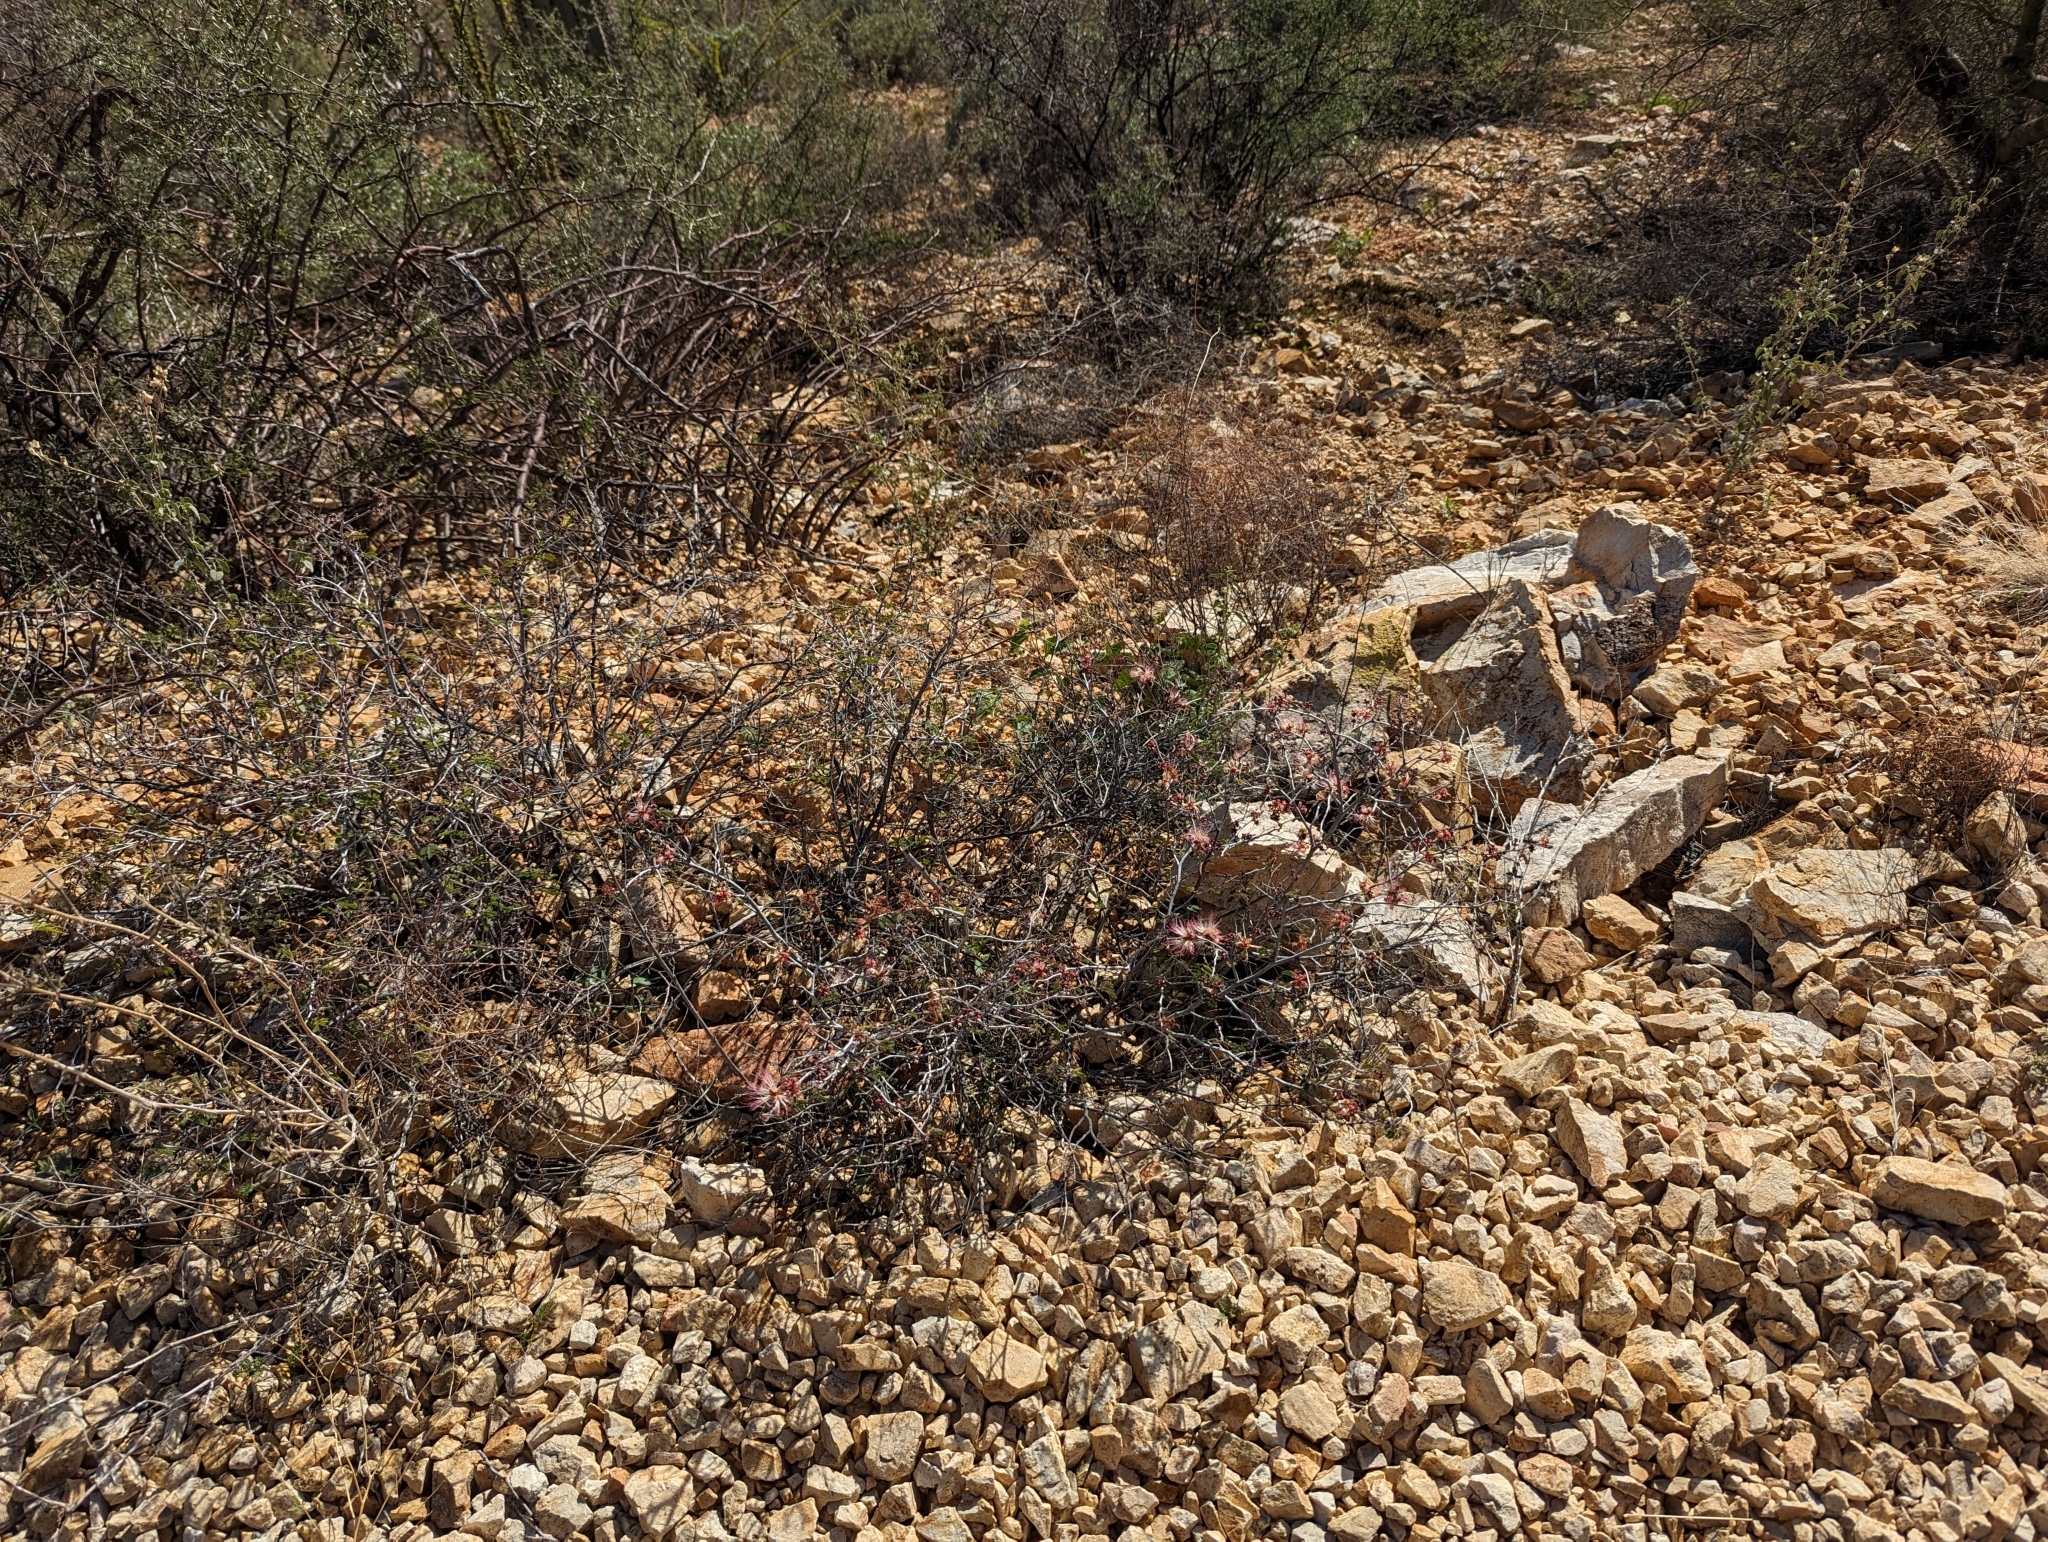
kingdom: Plantae
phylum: Tracheophyta
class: Magnoliopsida
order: Fabales
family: Fabaceae
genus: Calliandra
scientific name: Calliandra eriophylla
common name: Fairy-duster
